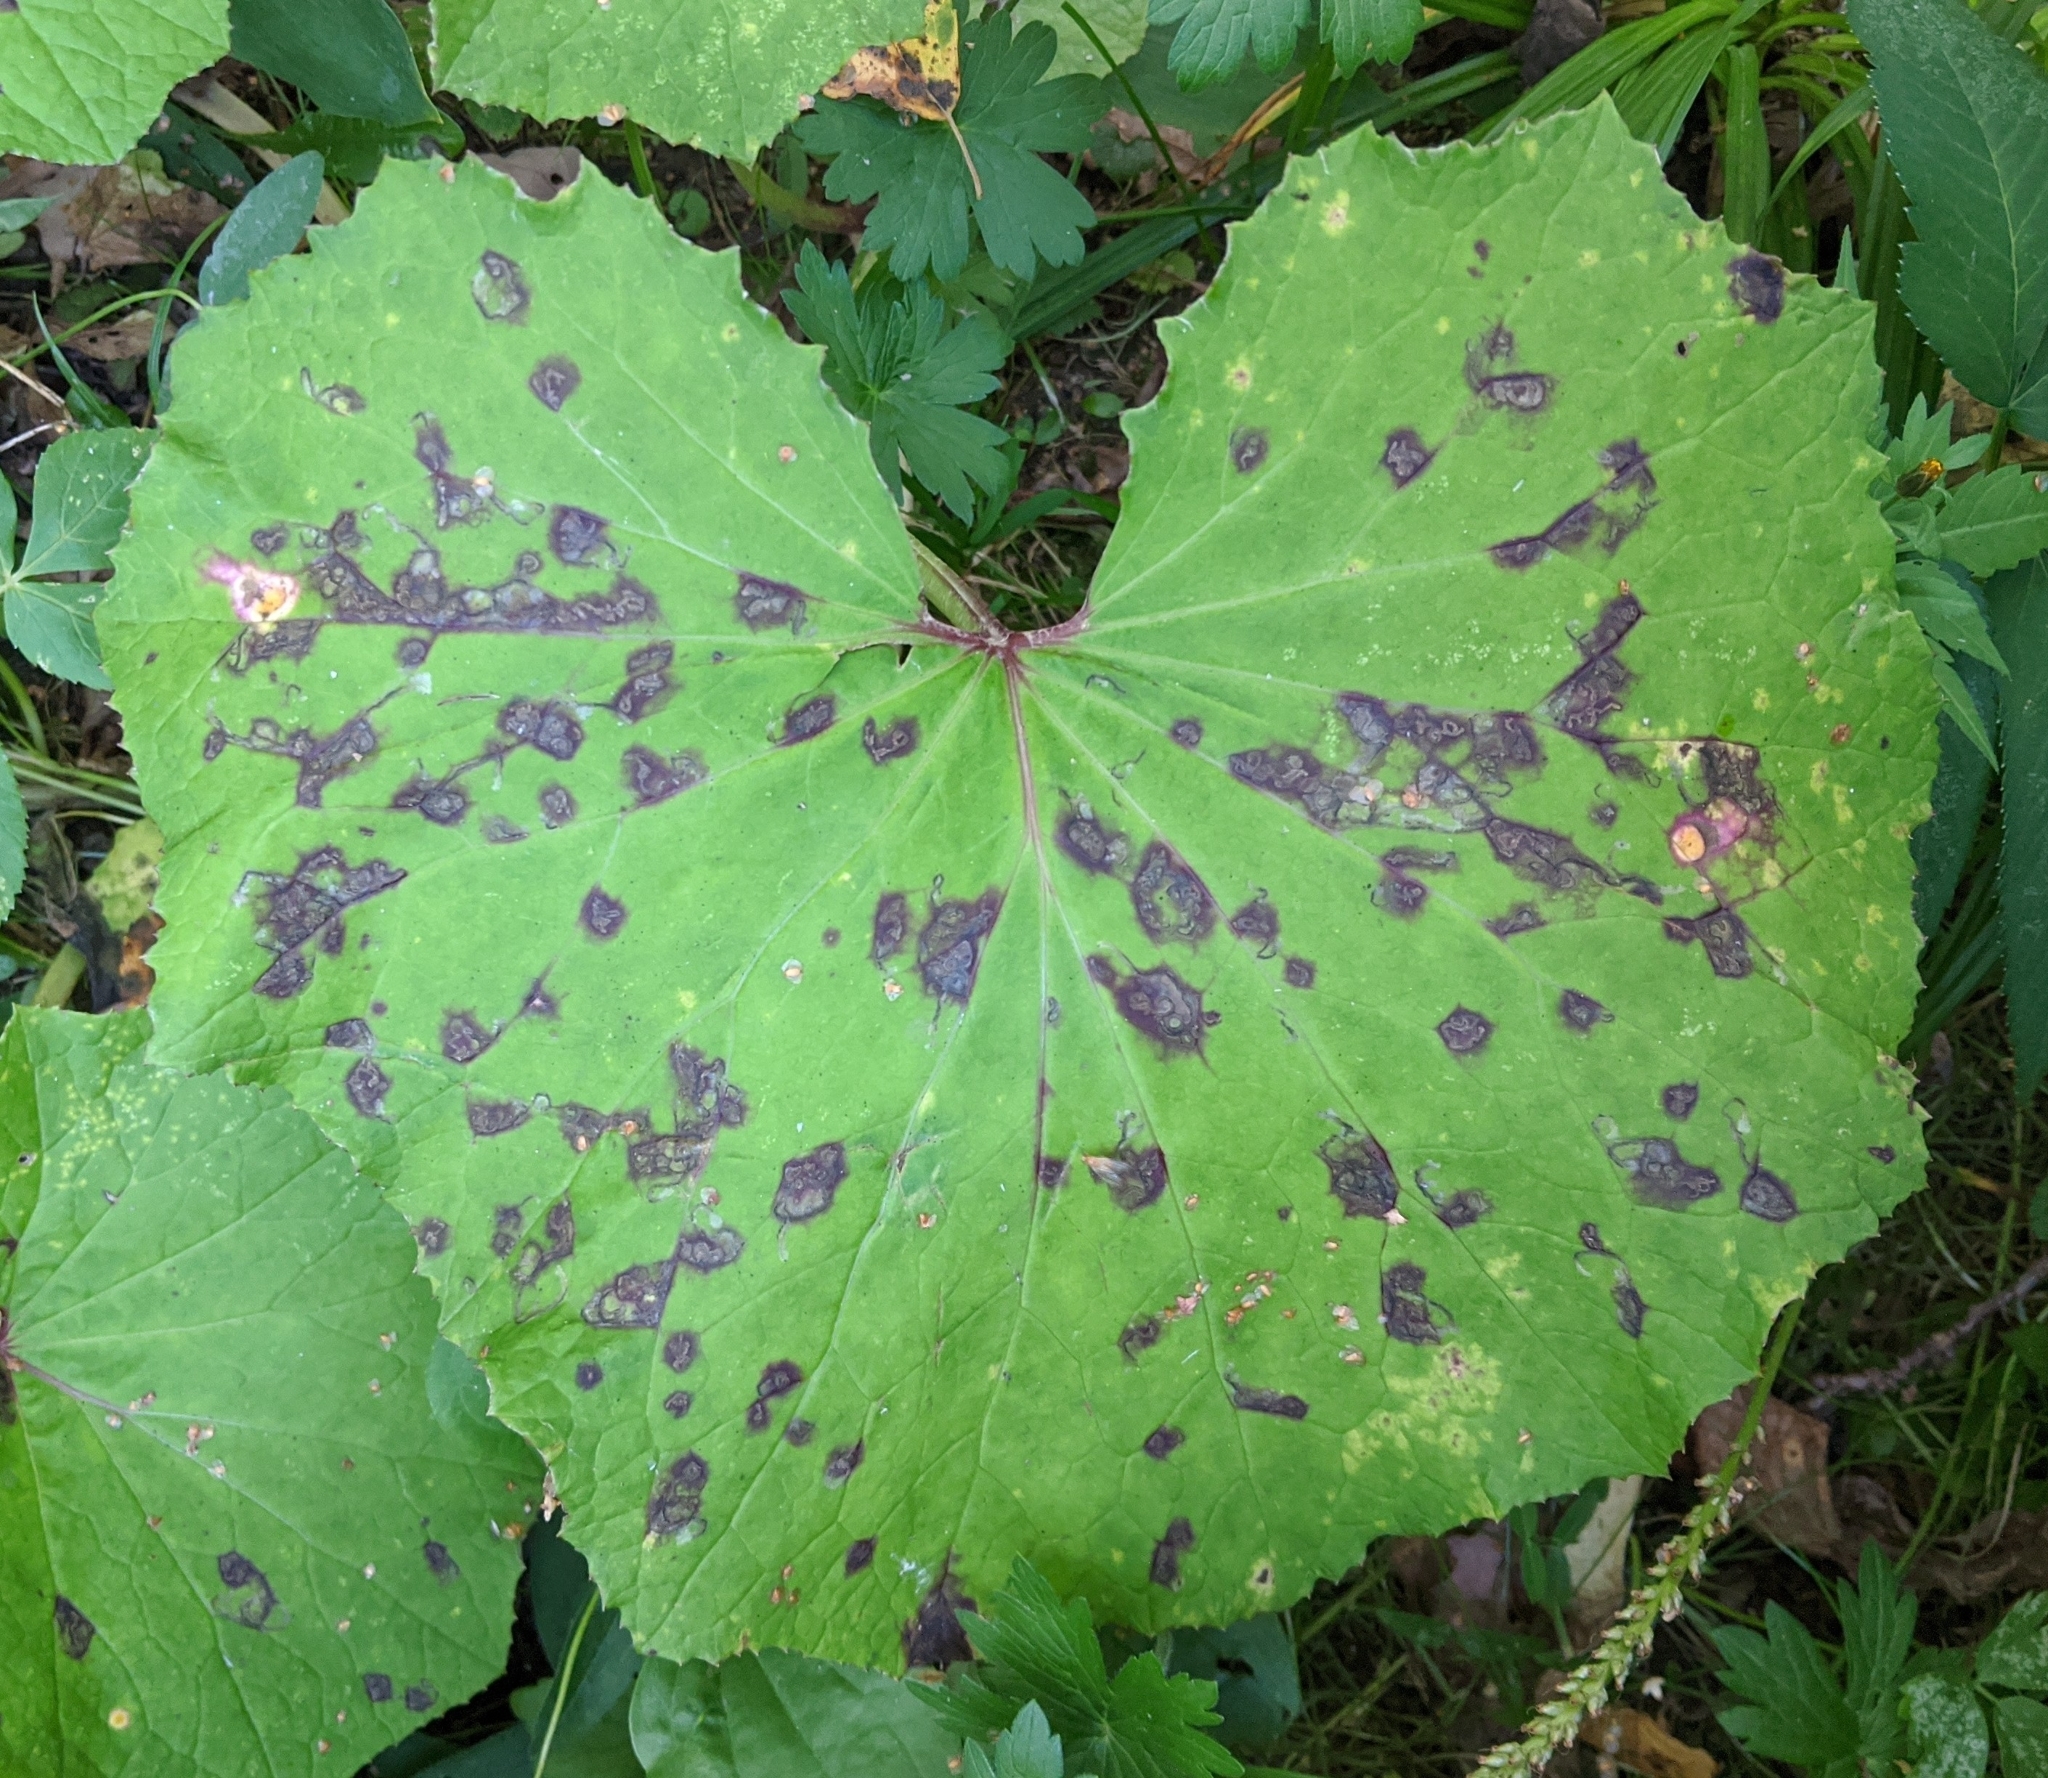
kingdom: Animalia
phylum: Arthropoda
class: Insecta
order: Diptera
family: Sciaridae
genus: Phytosciara
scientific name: Phytosciara macrotricha
